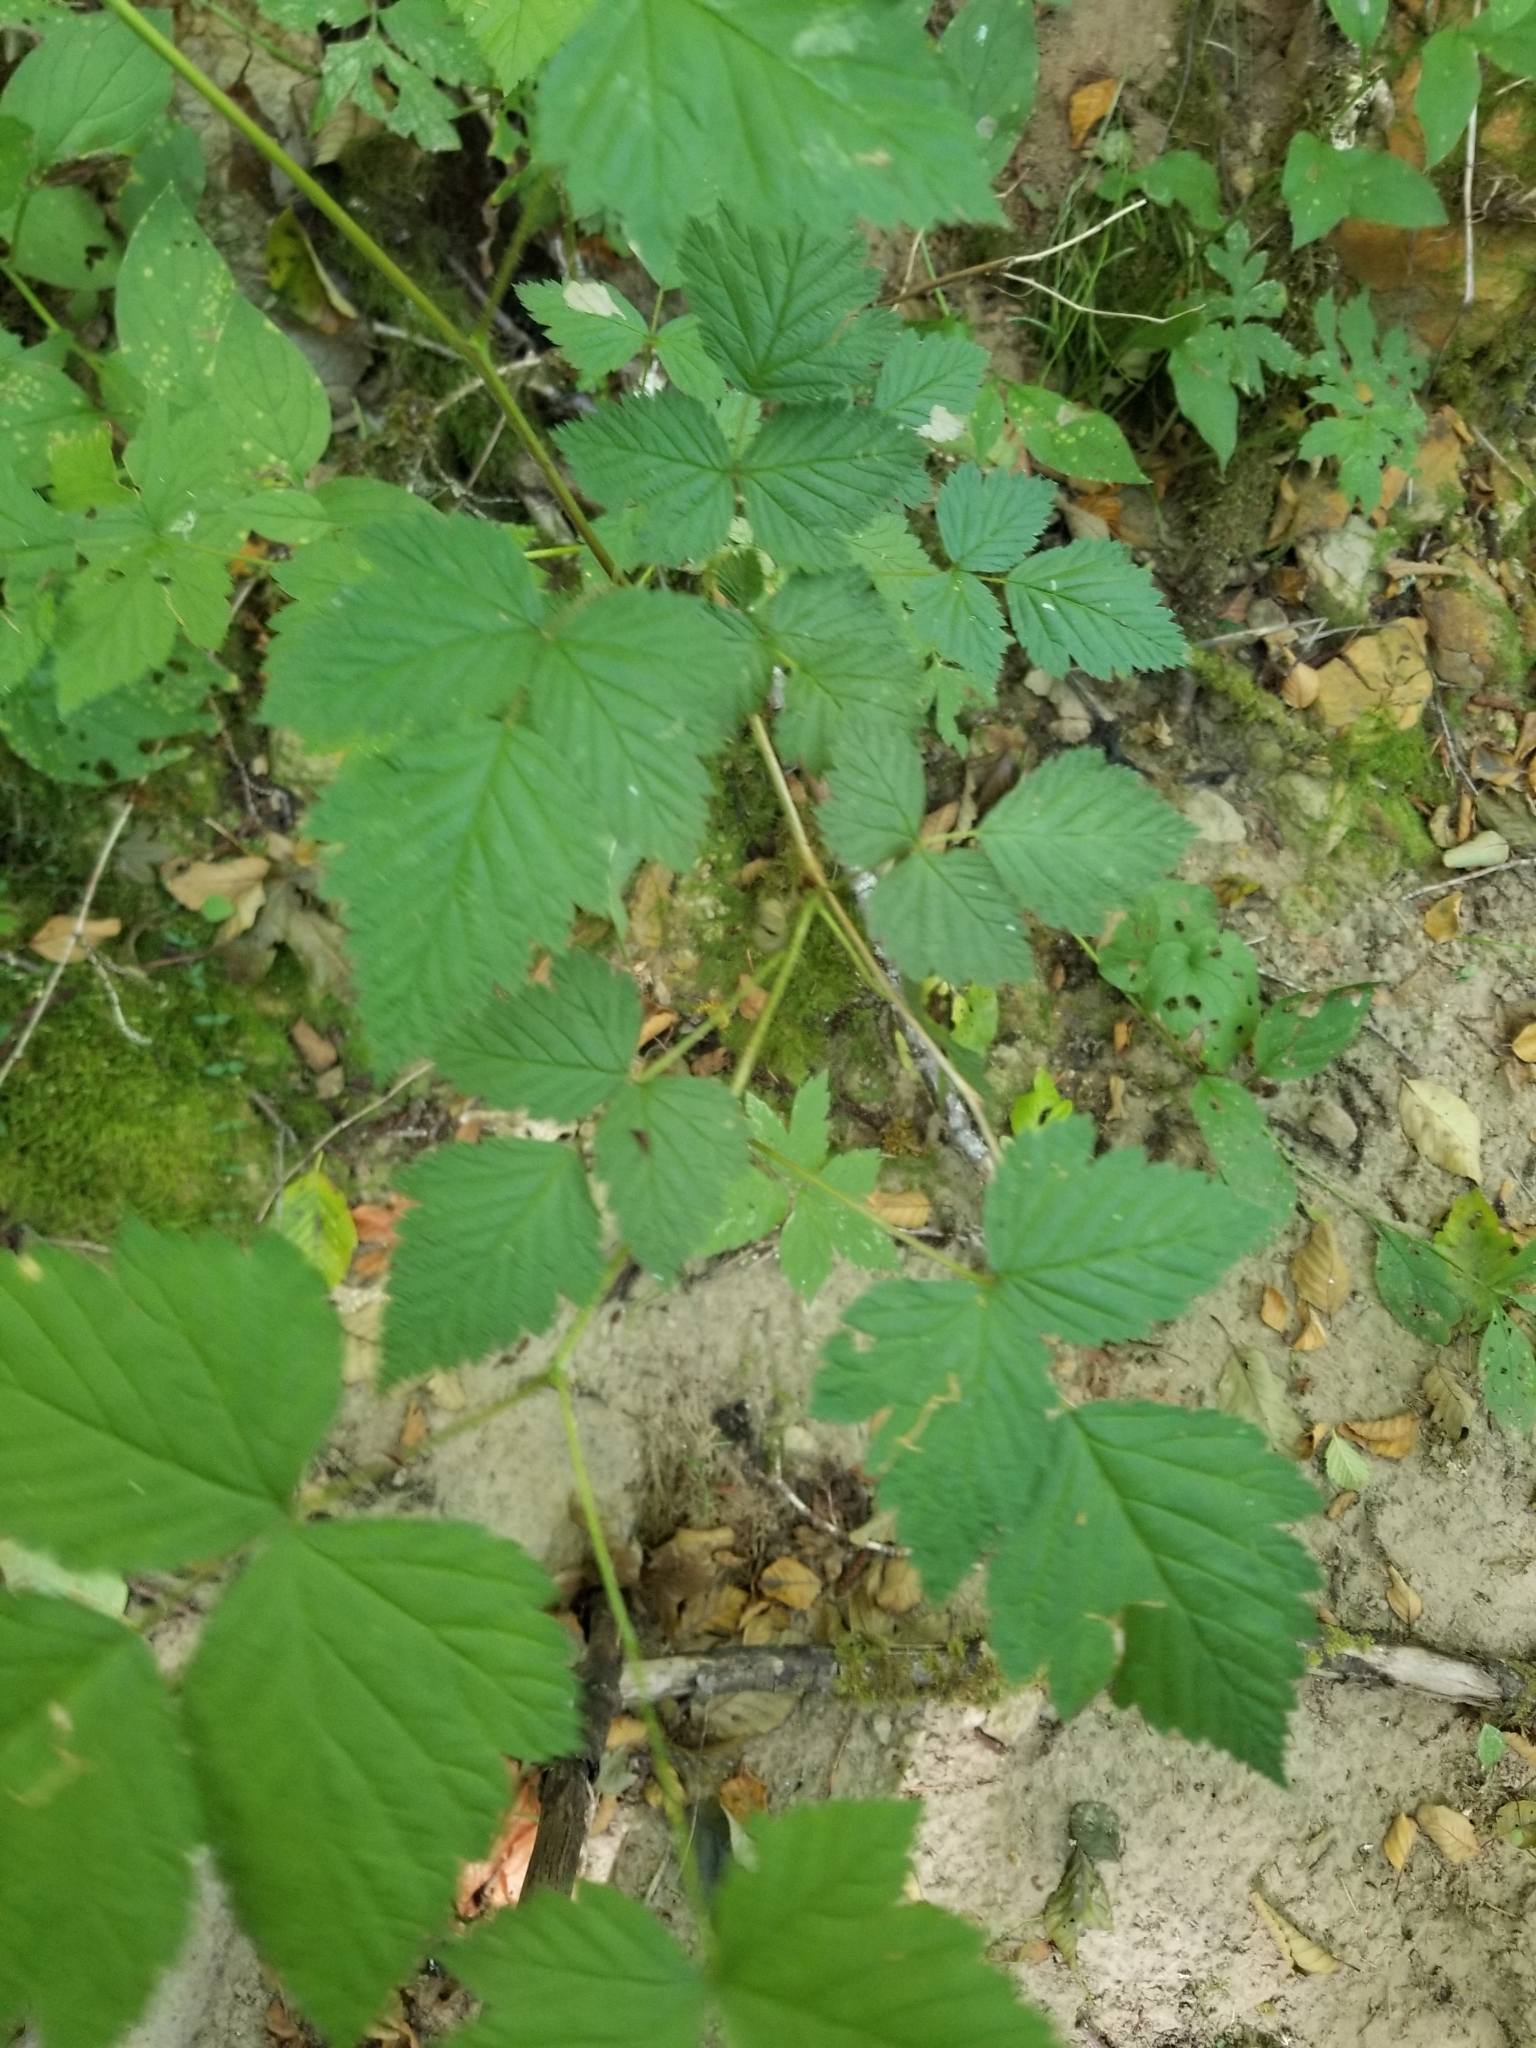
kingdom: Plantae
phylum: Tracheophyta
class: Magnoliopsida
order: Rosales
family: Rosaceae
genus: Rubus
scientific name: Rubus spectabilis
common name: Salmonberry
